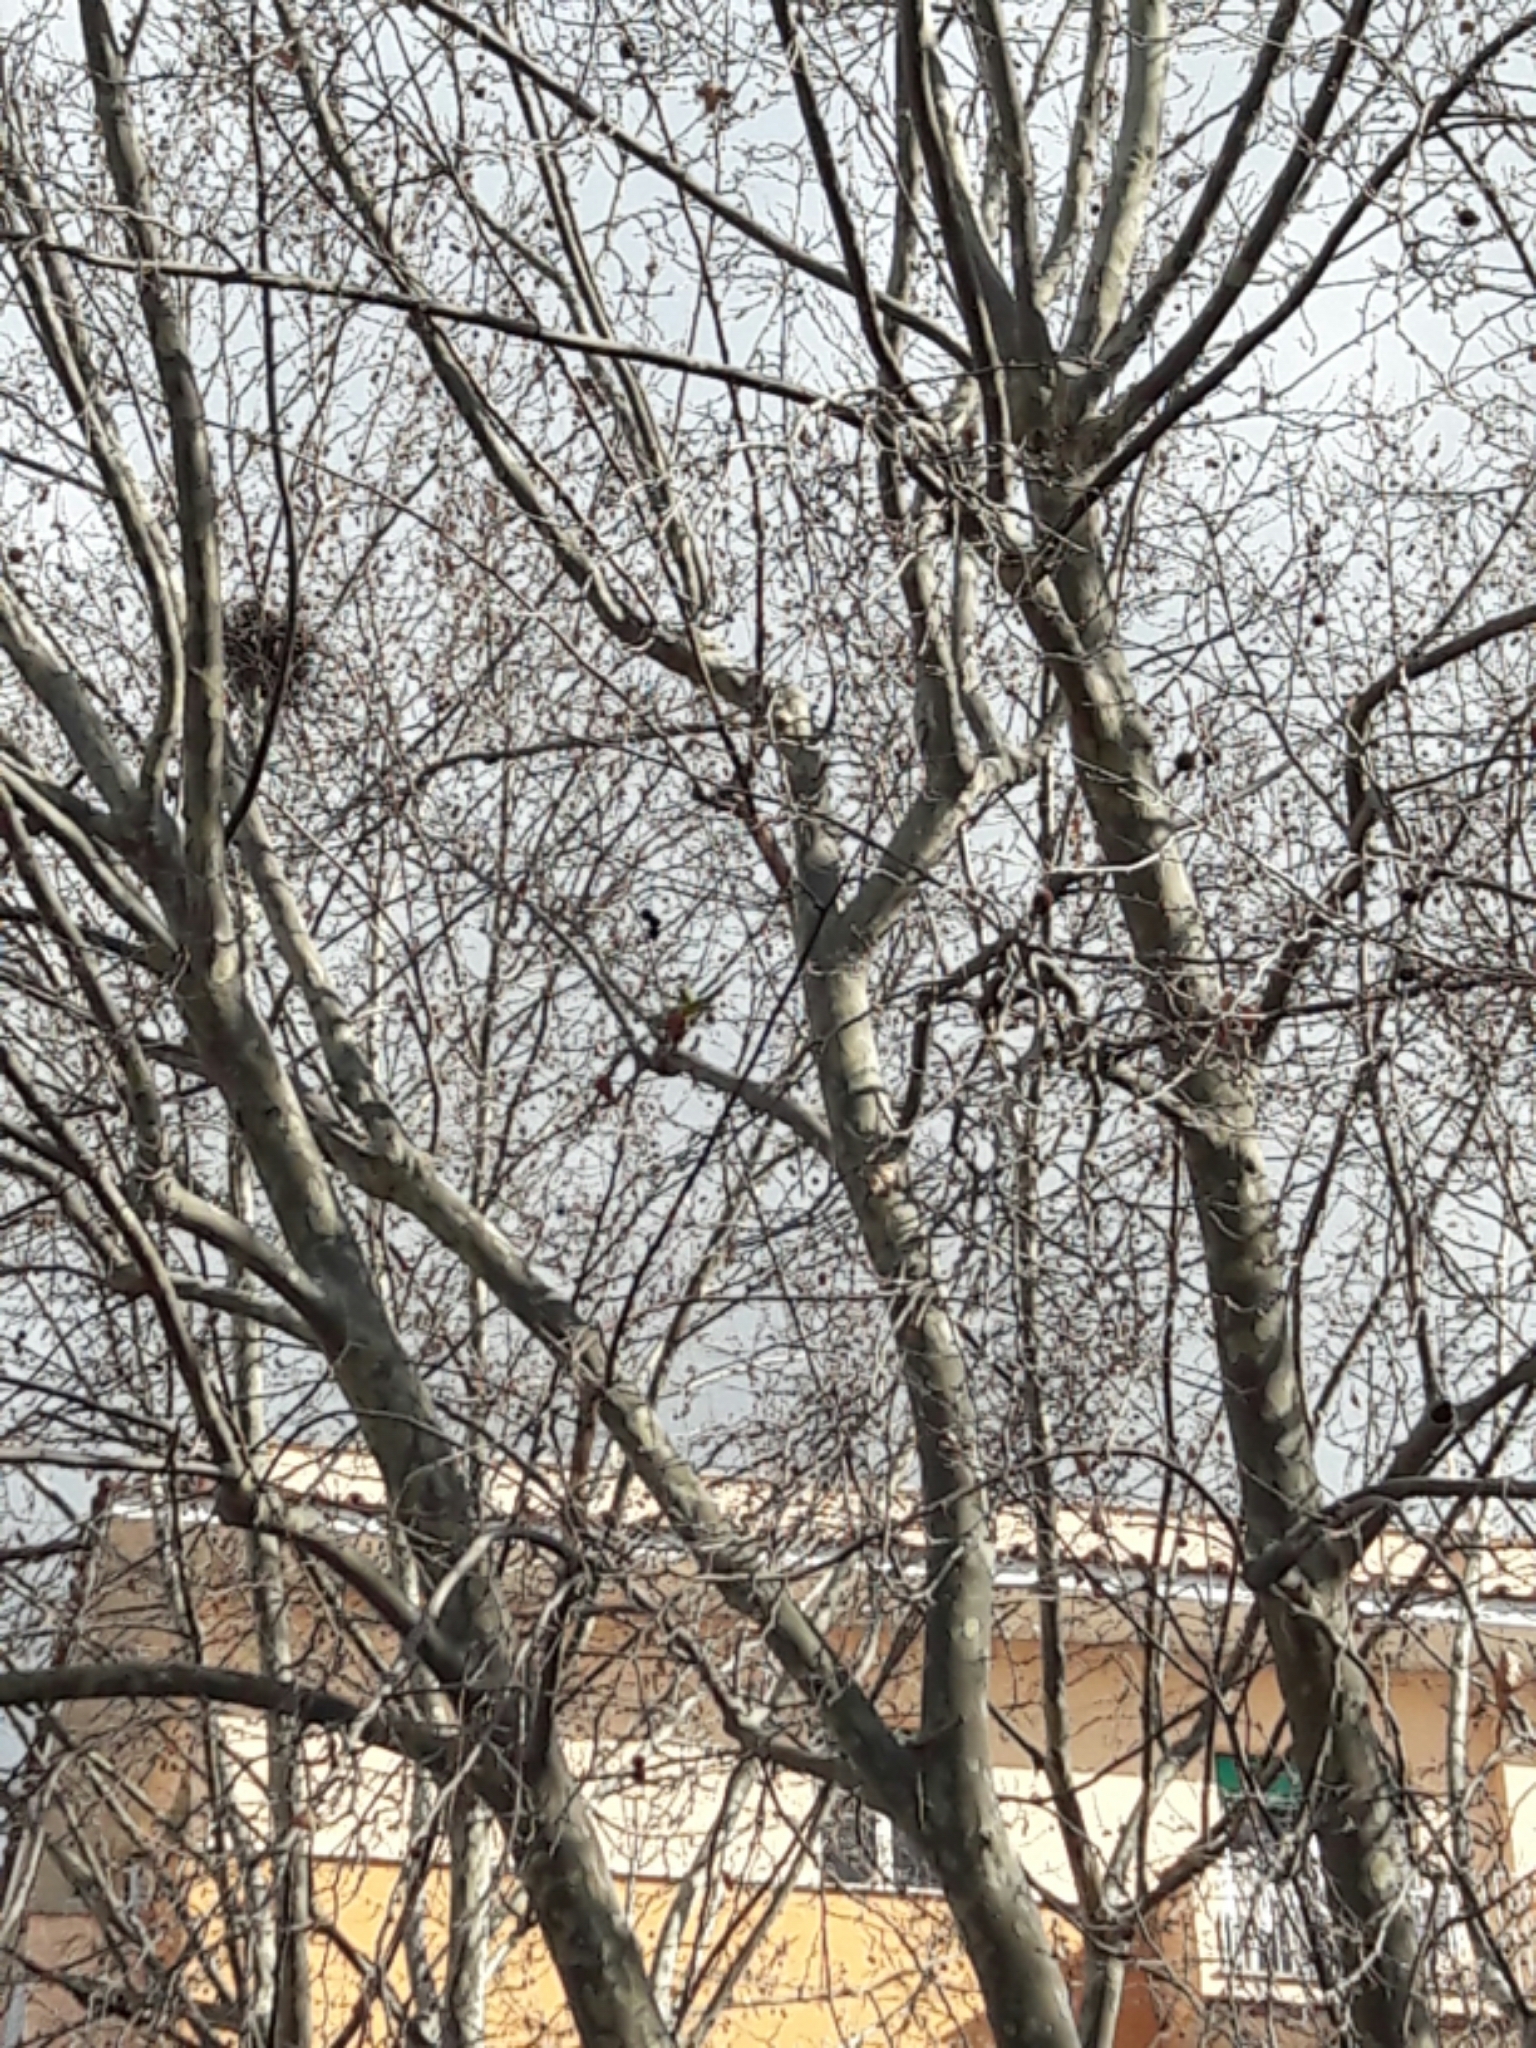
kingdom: Animalia
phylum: Chordata
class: Aves
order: Psittaciformes
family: Psittacidae
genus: Psittacula
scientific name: Psittacula krameri
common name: Rose-ringed parakeet
